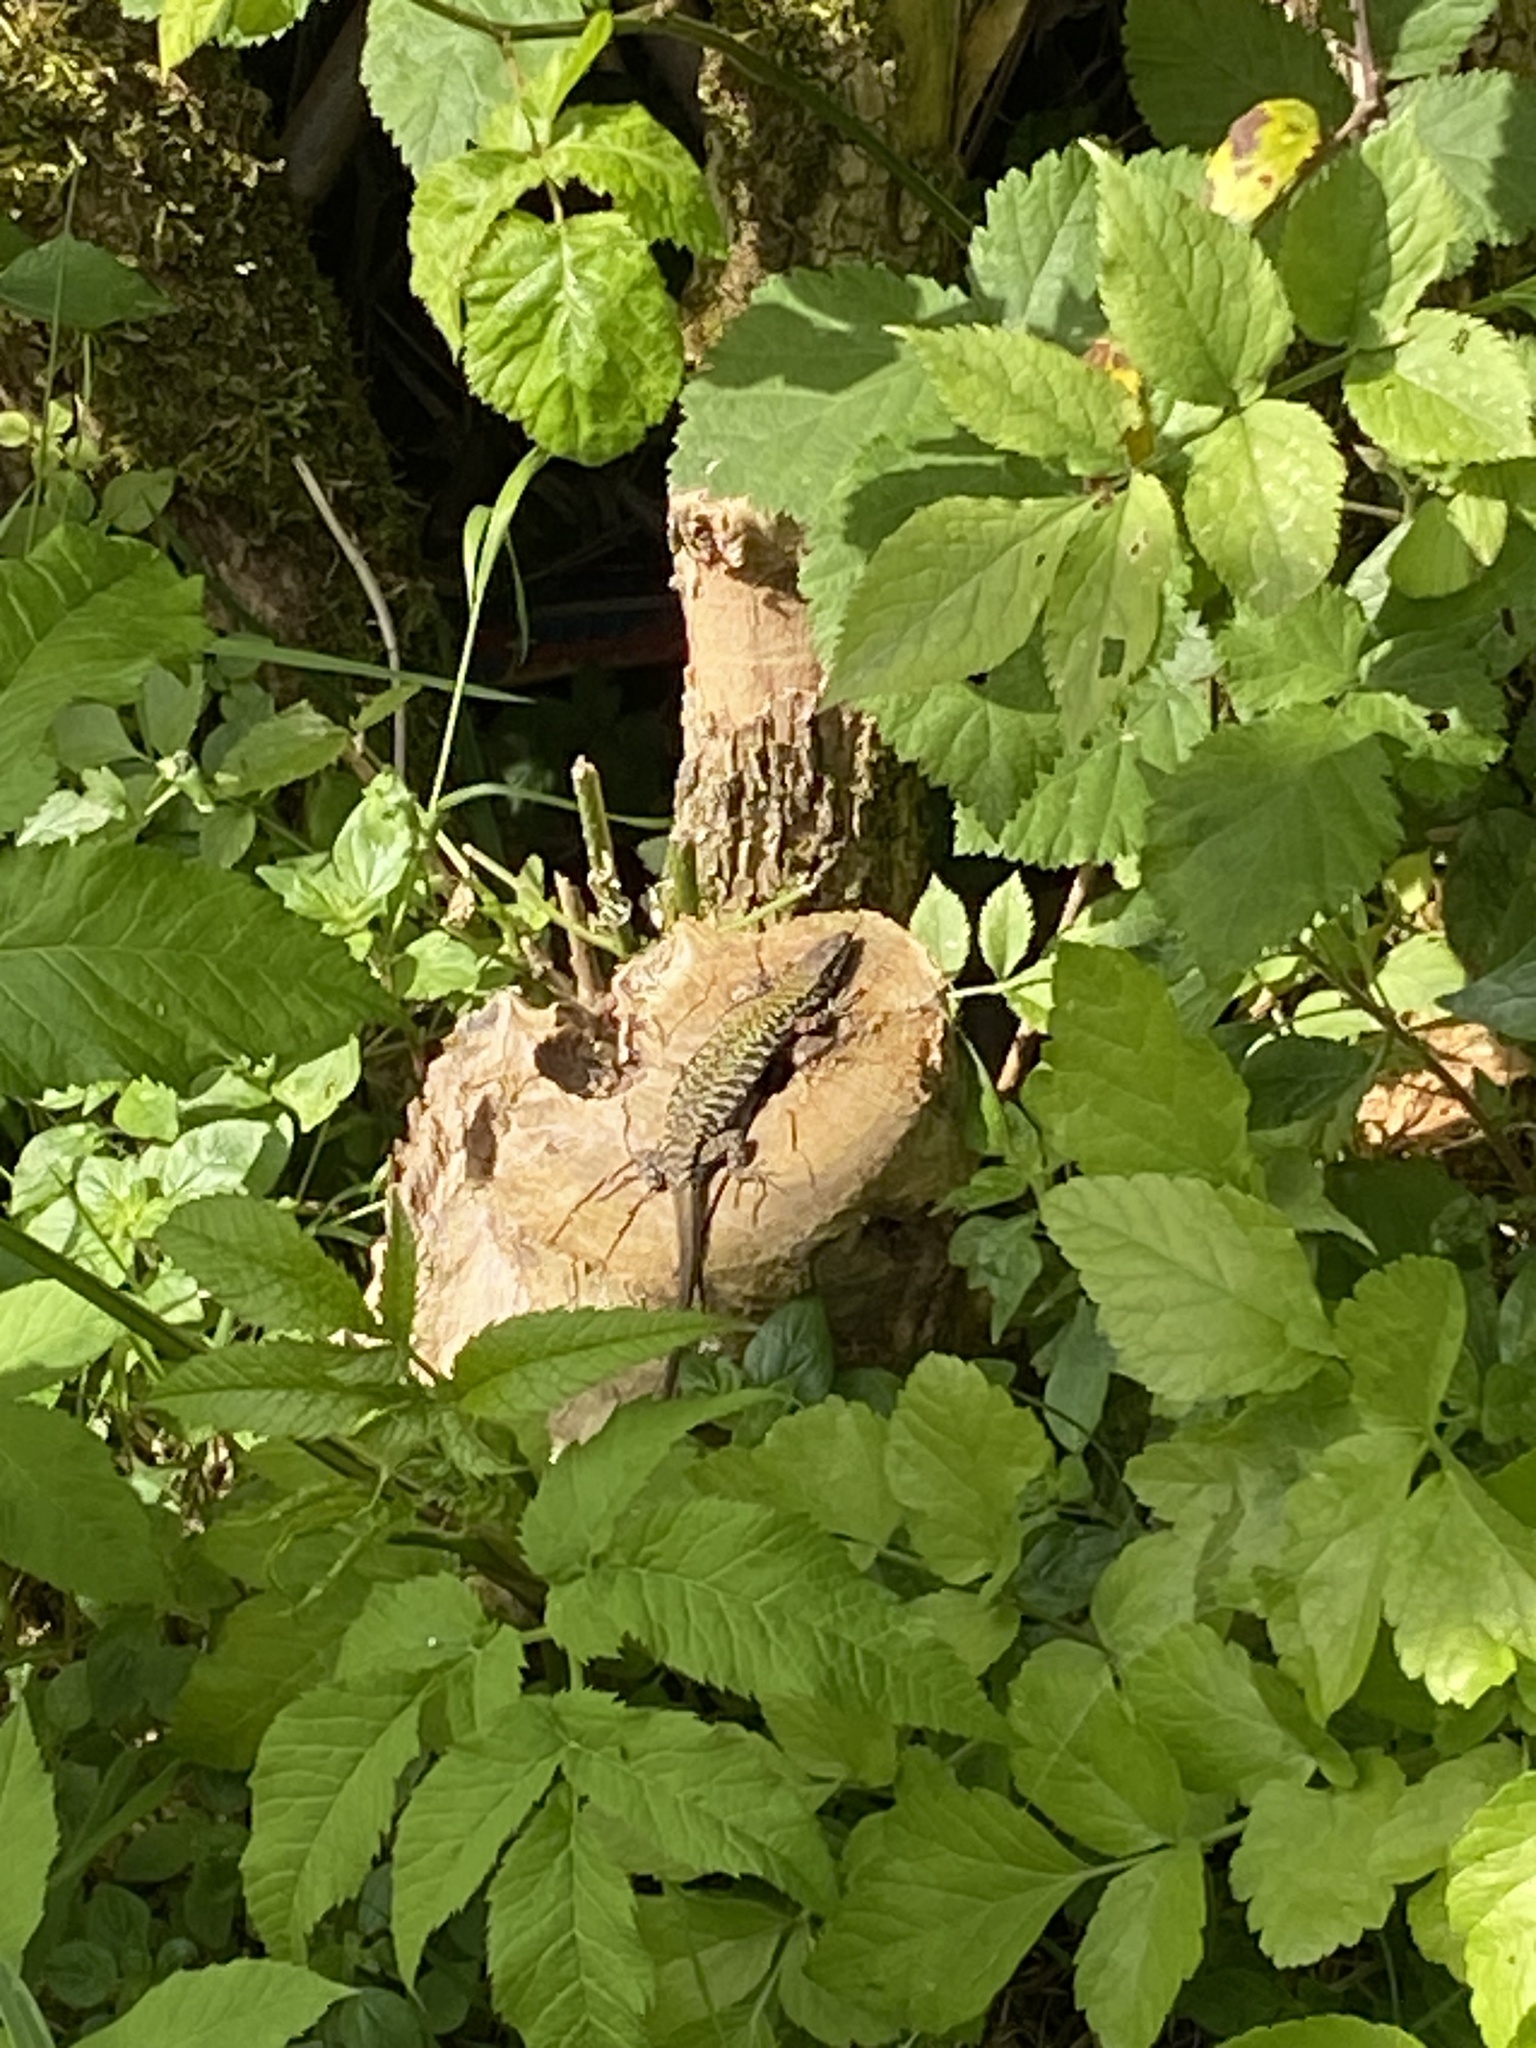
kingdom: Animalia
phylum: Chordata
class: Squamata
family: Lacertidae
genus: Podarcis
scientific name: Podarcis muralis
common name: Common wall lizard
